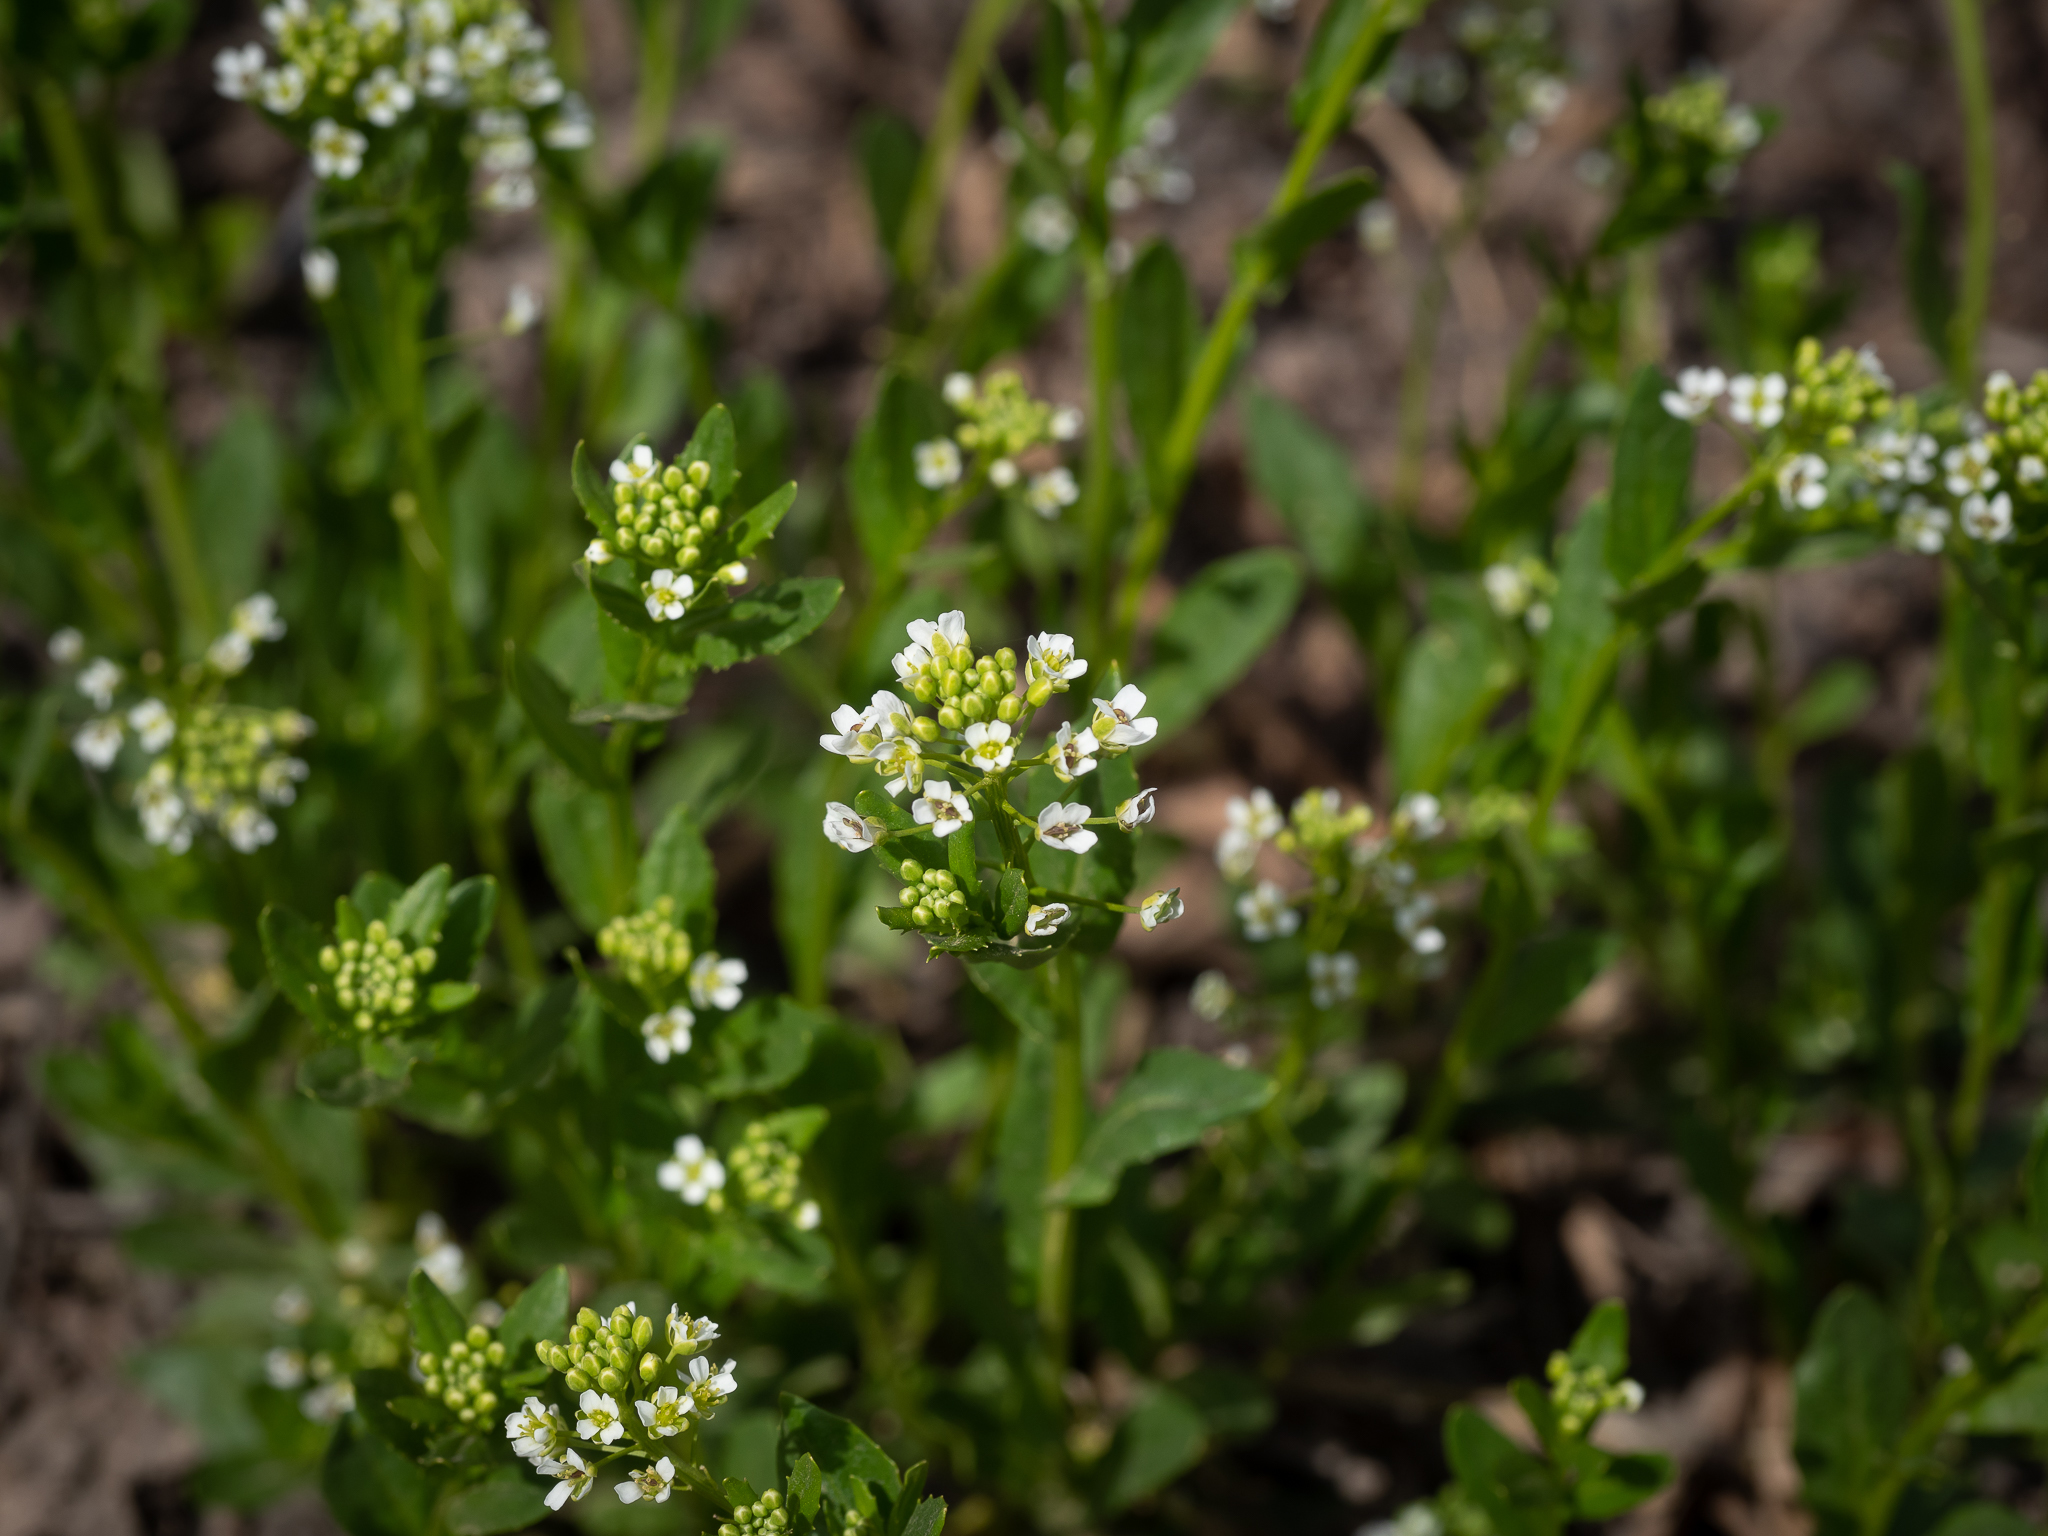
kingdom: Plantae
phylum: Tracheophyta
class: Magnoliopsida
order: Brassicales
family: Brassicaceae
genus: Thlaspi
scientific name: Thlaspi arvense
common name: Field pennycress
